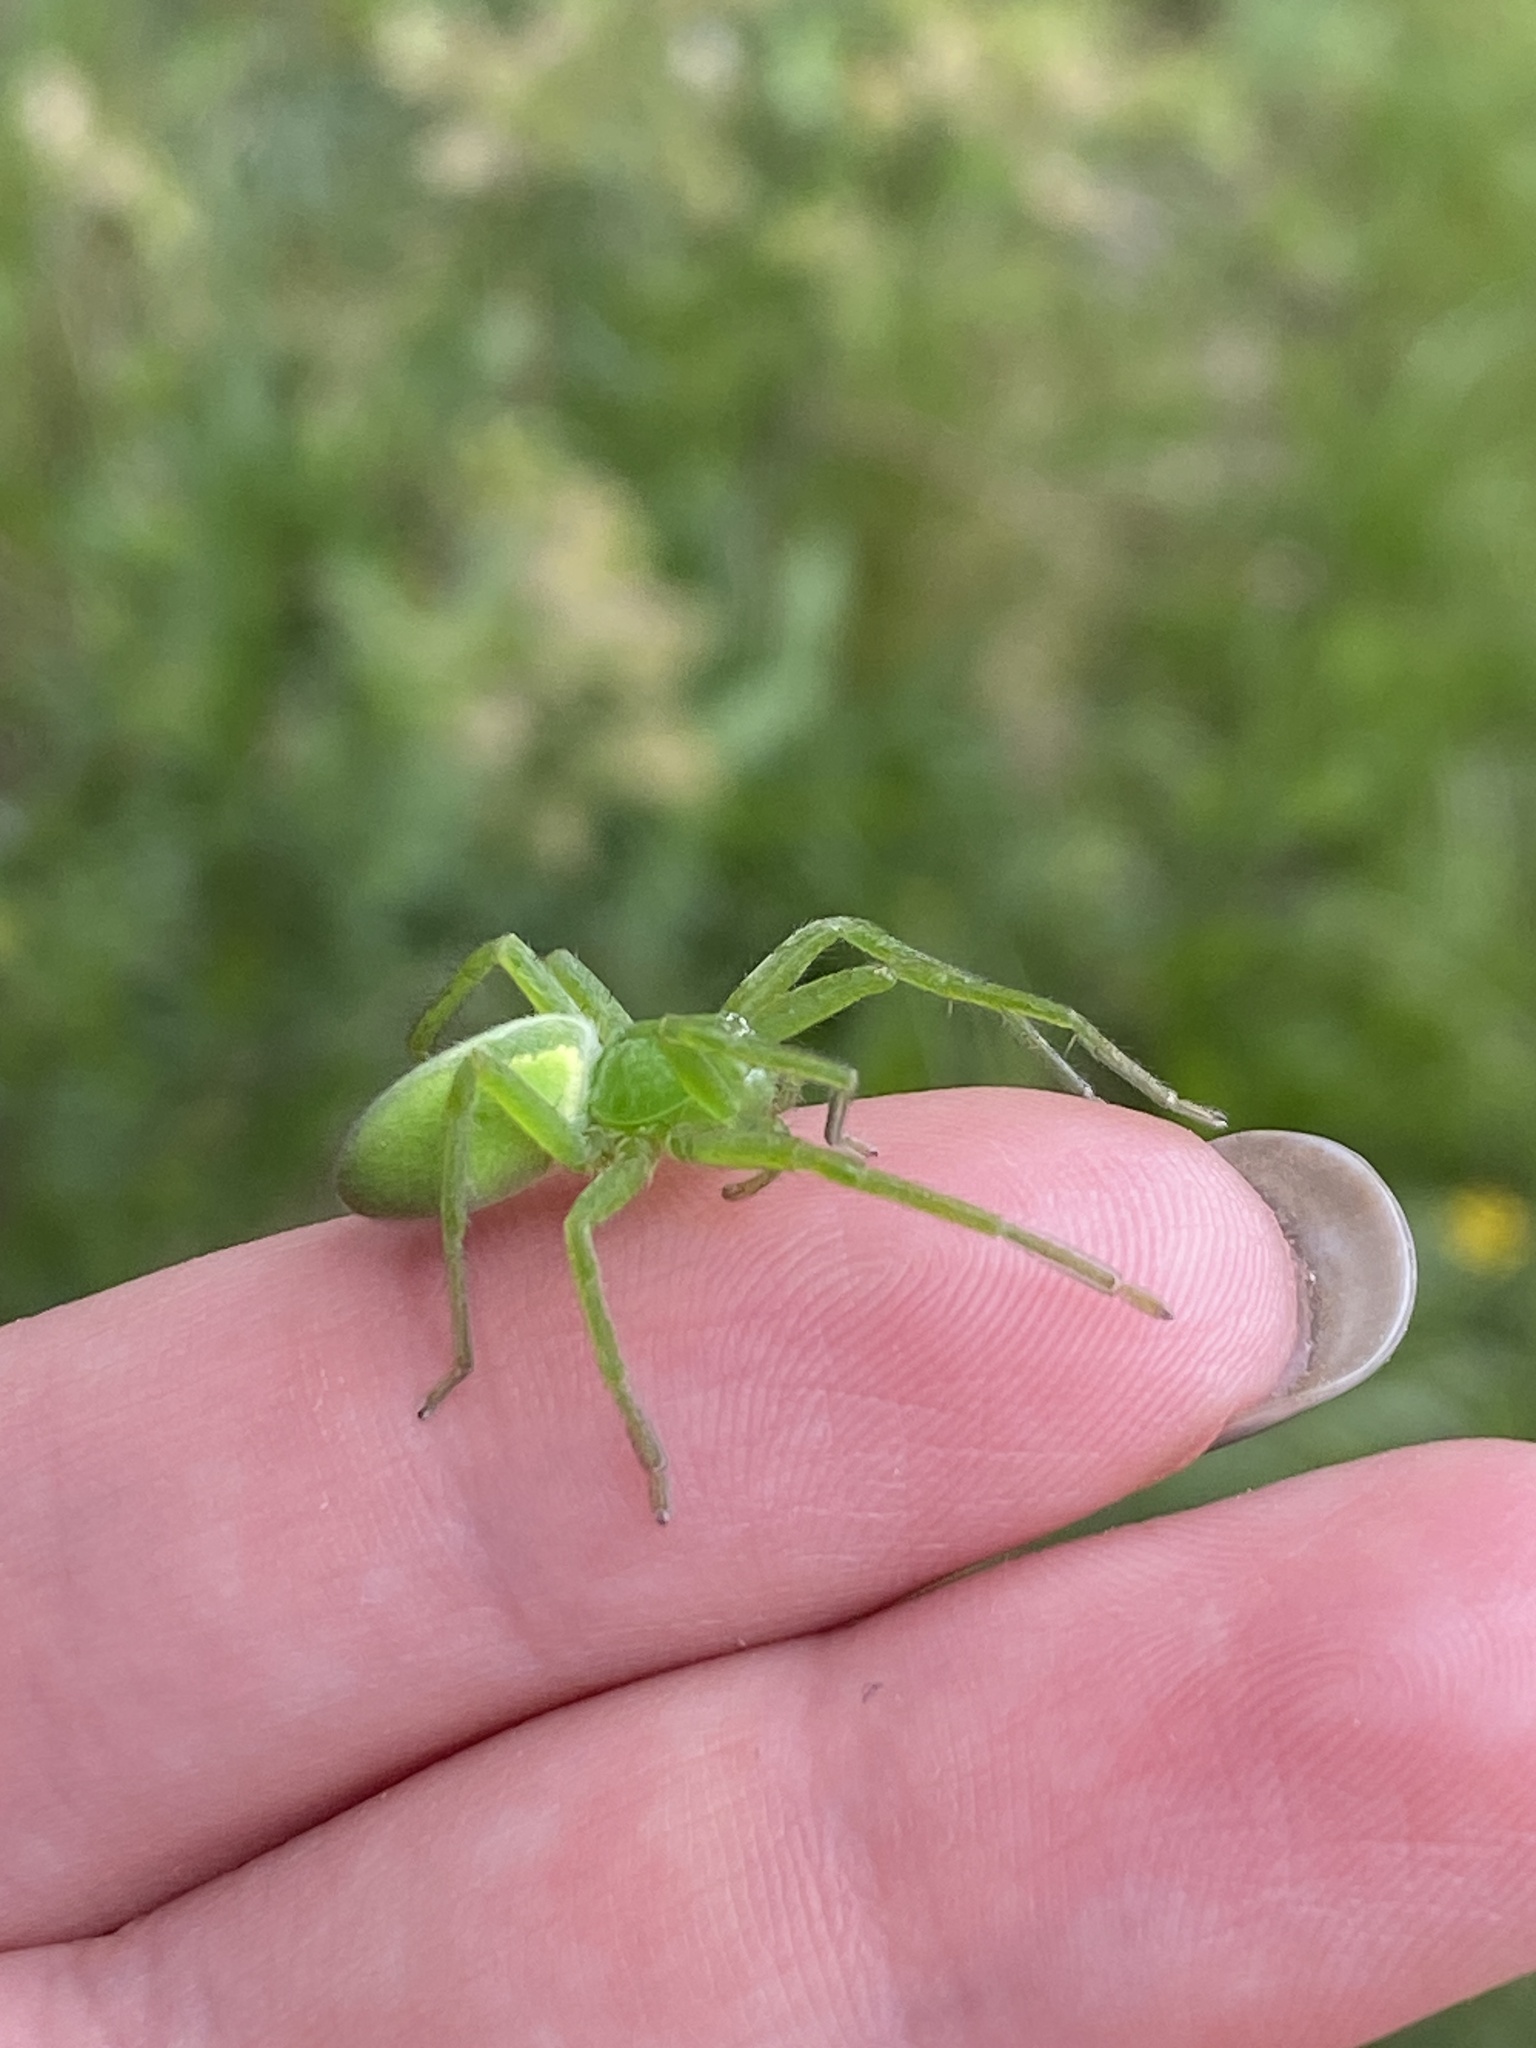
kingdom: Animalia
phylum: Arthropoda
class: Arachnida
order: Araneae
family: Sparassidae
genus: Micrommata
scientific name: Micrommata virescens
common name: Green spider
